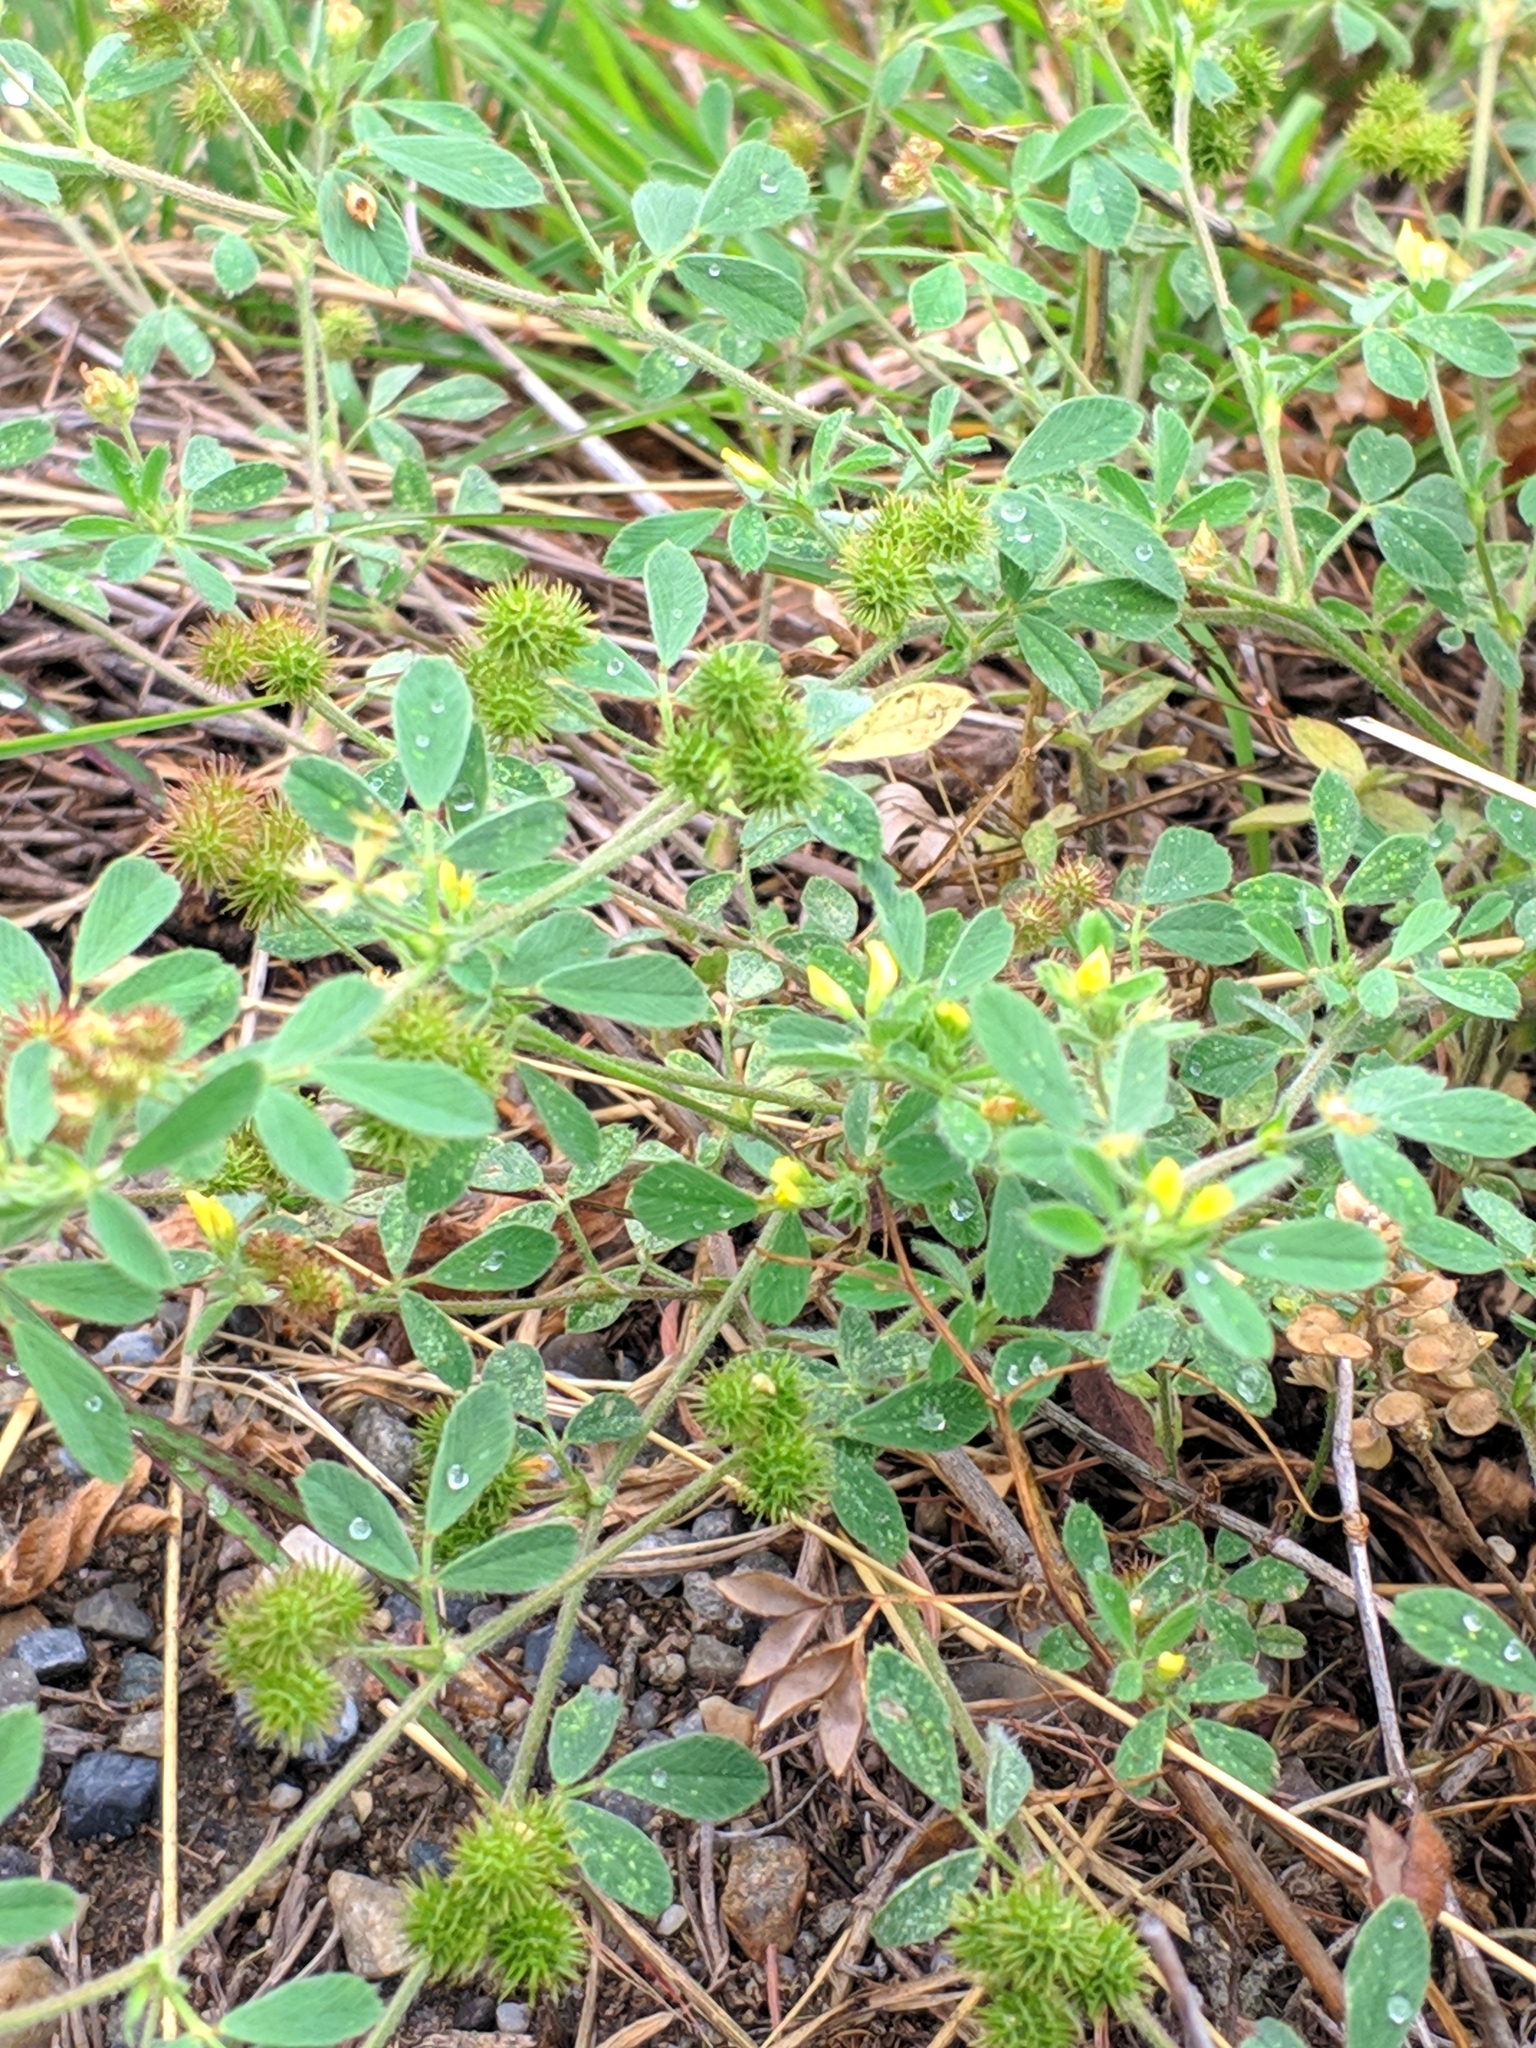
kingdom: Plantae
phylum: Tracheophyta
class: Magnoliopsida
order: Fabales
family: Fabaceae
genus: Medicago
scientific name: Medicago minima
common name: Little bur-clover
